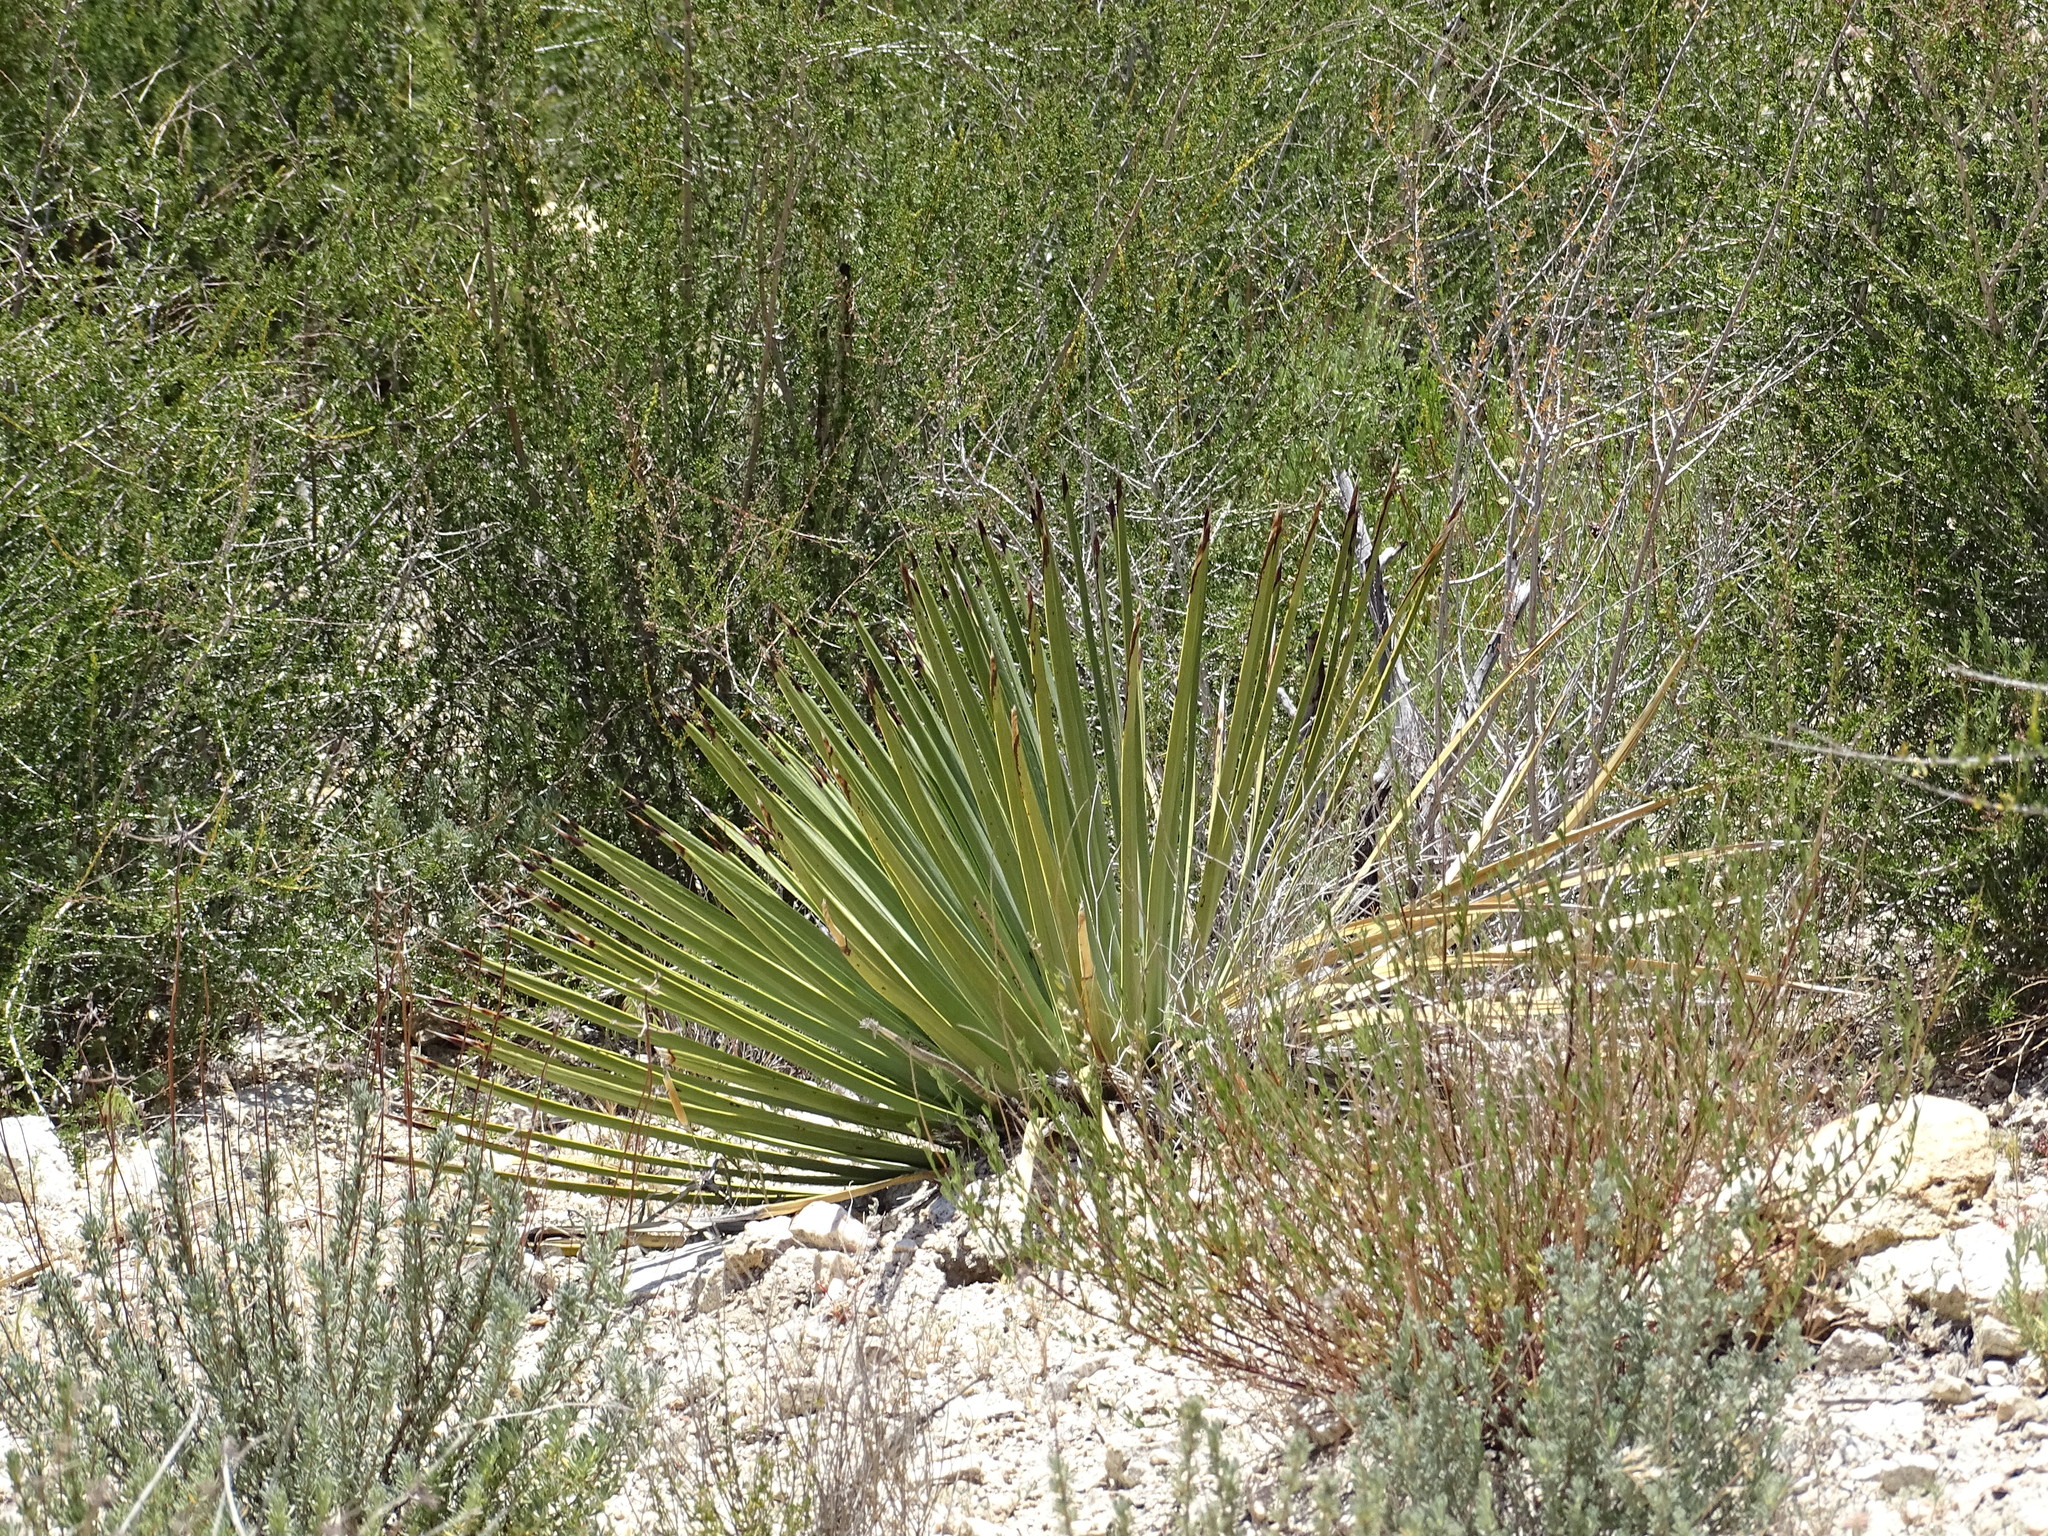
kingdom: Plantae
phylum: Tracheophyta
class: Liliopsida
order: Asparagales
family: Asparagaceae
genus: Hesperoyucca
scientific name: Hesperoyucca whipplei
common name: Our lord's-candle
